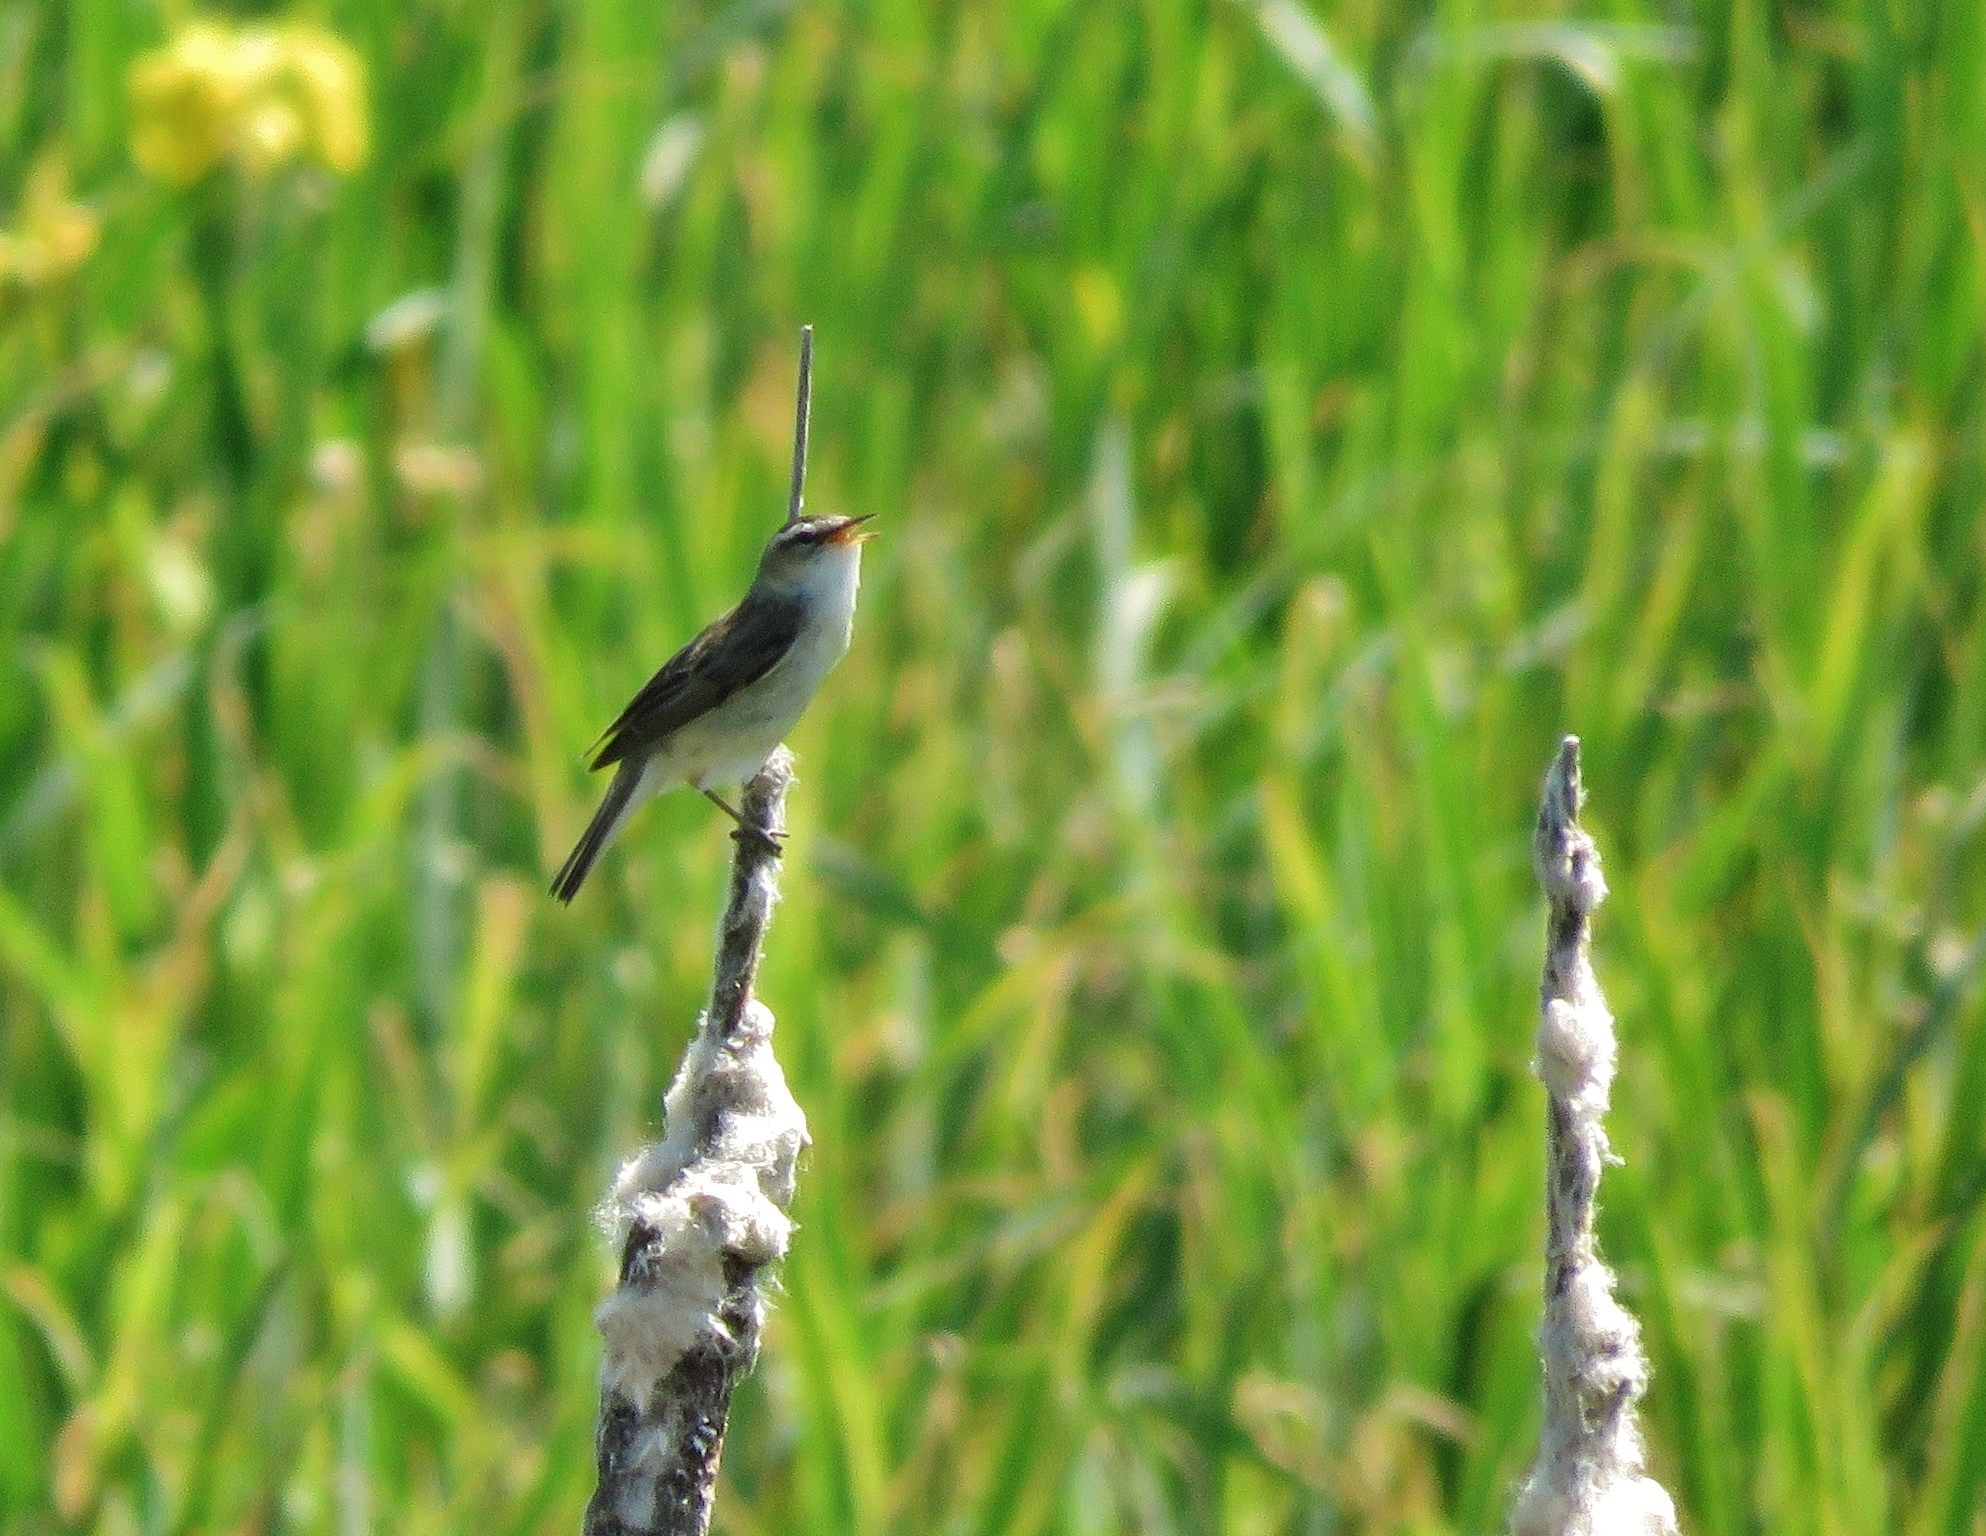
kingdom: Animalia
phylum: Chordata
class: Aves
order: Passeriformes
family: Acrocephalidae
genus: Acrocephalus
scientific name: Acrocephalus schoenobaenus
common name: Sedge warbler
